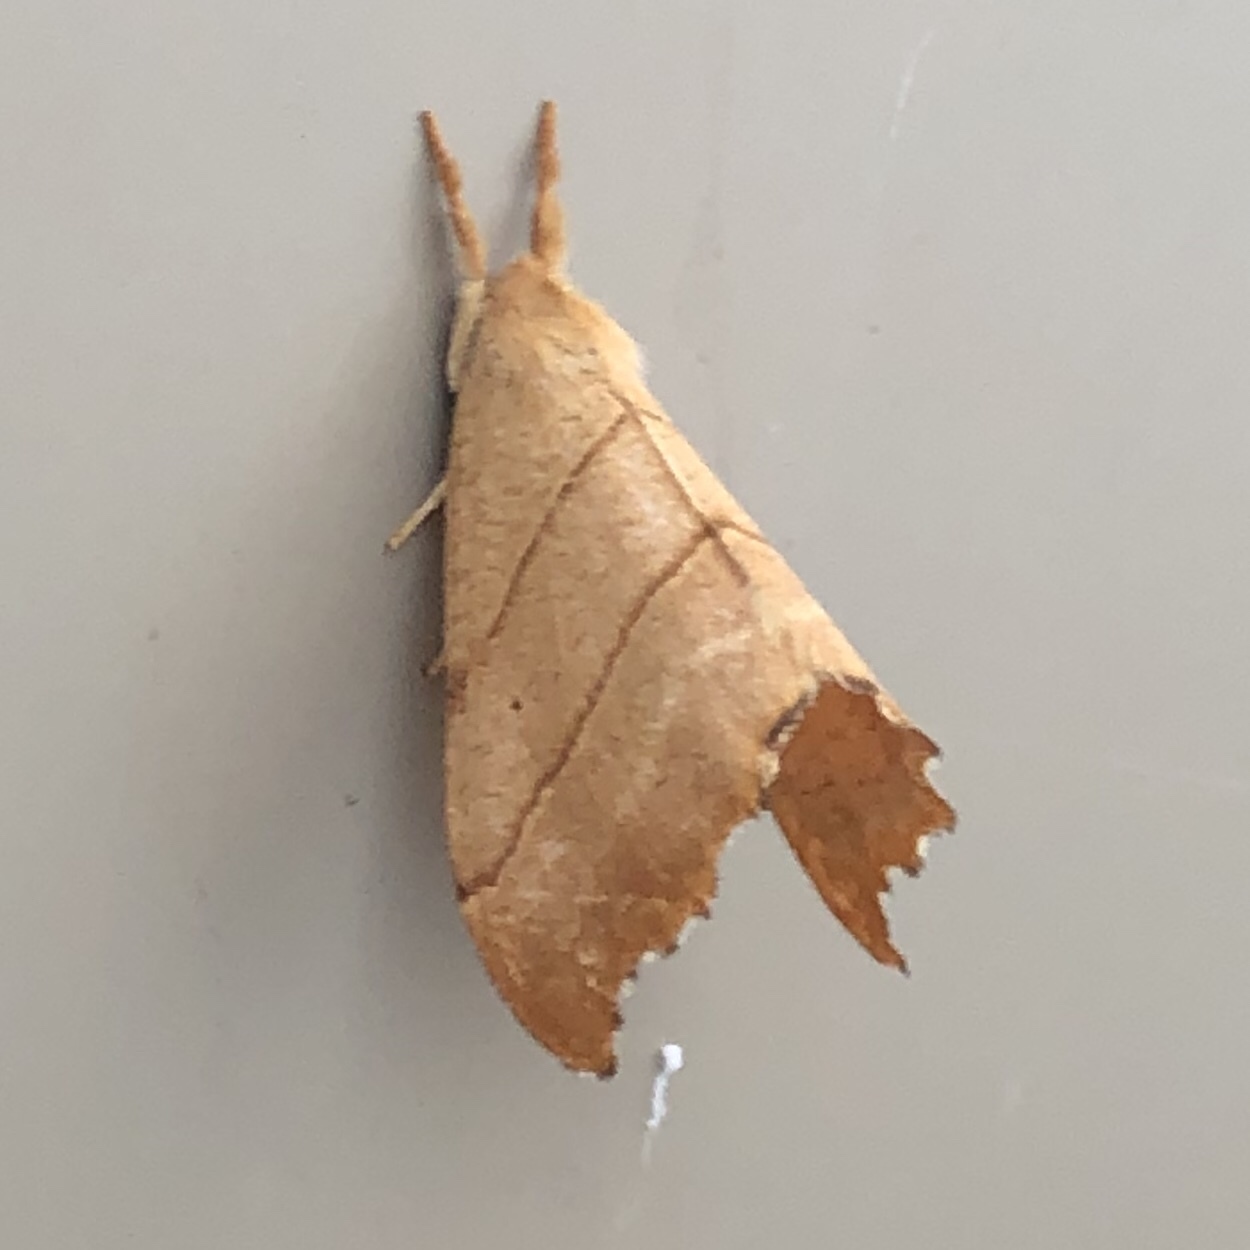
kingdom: Animalia
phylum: Arthropoda
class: Insecta
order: Lepidoptera
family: Drepanidae
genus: Falcaria
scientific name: Falcaria bilineata
